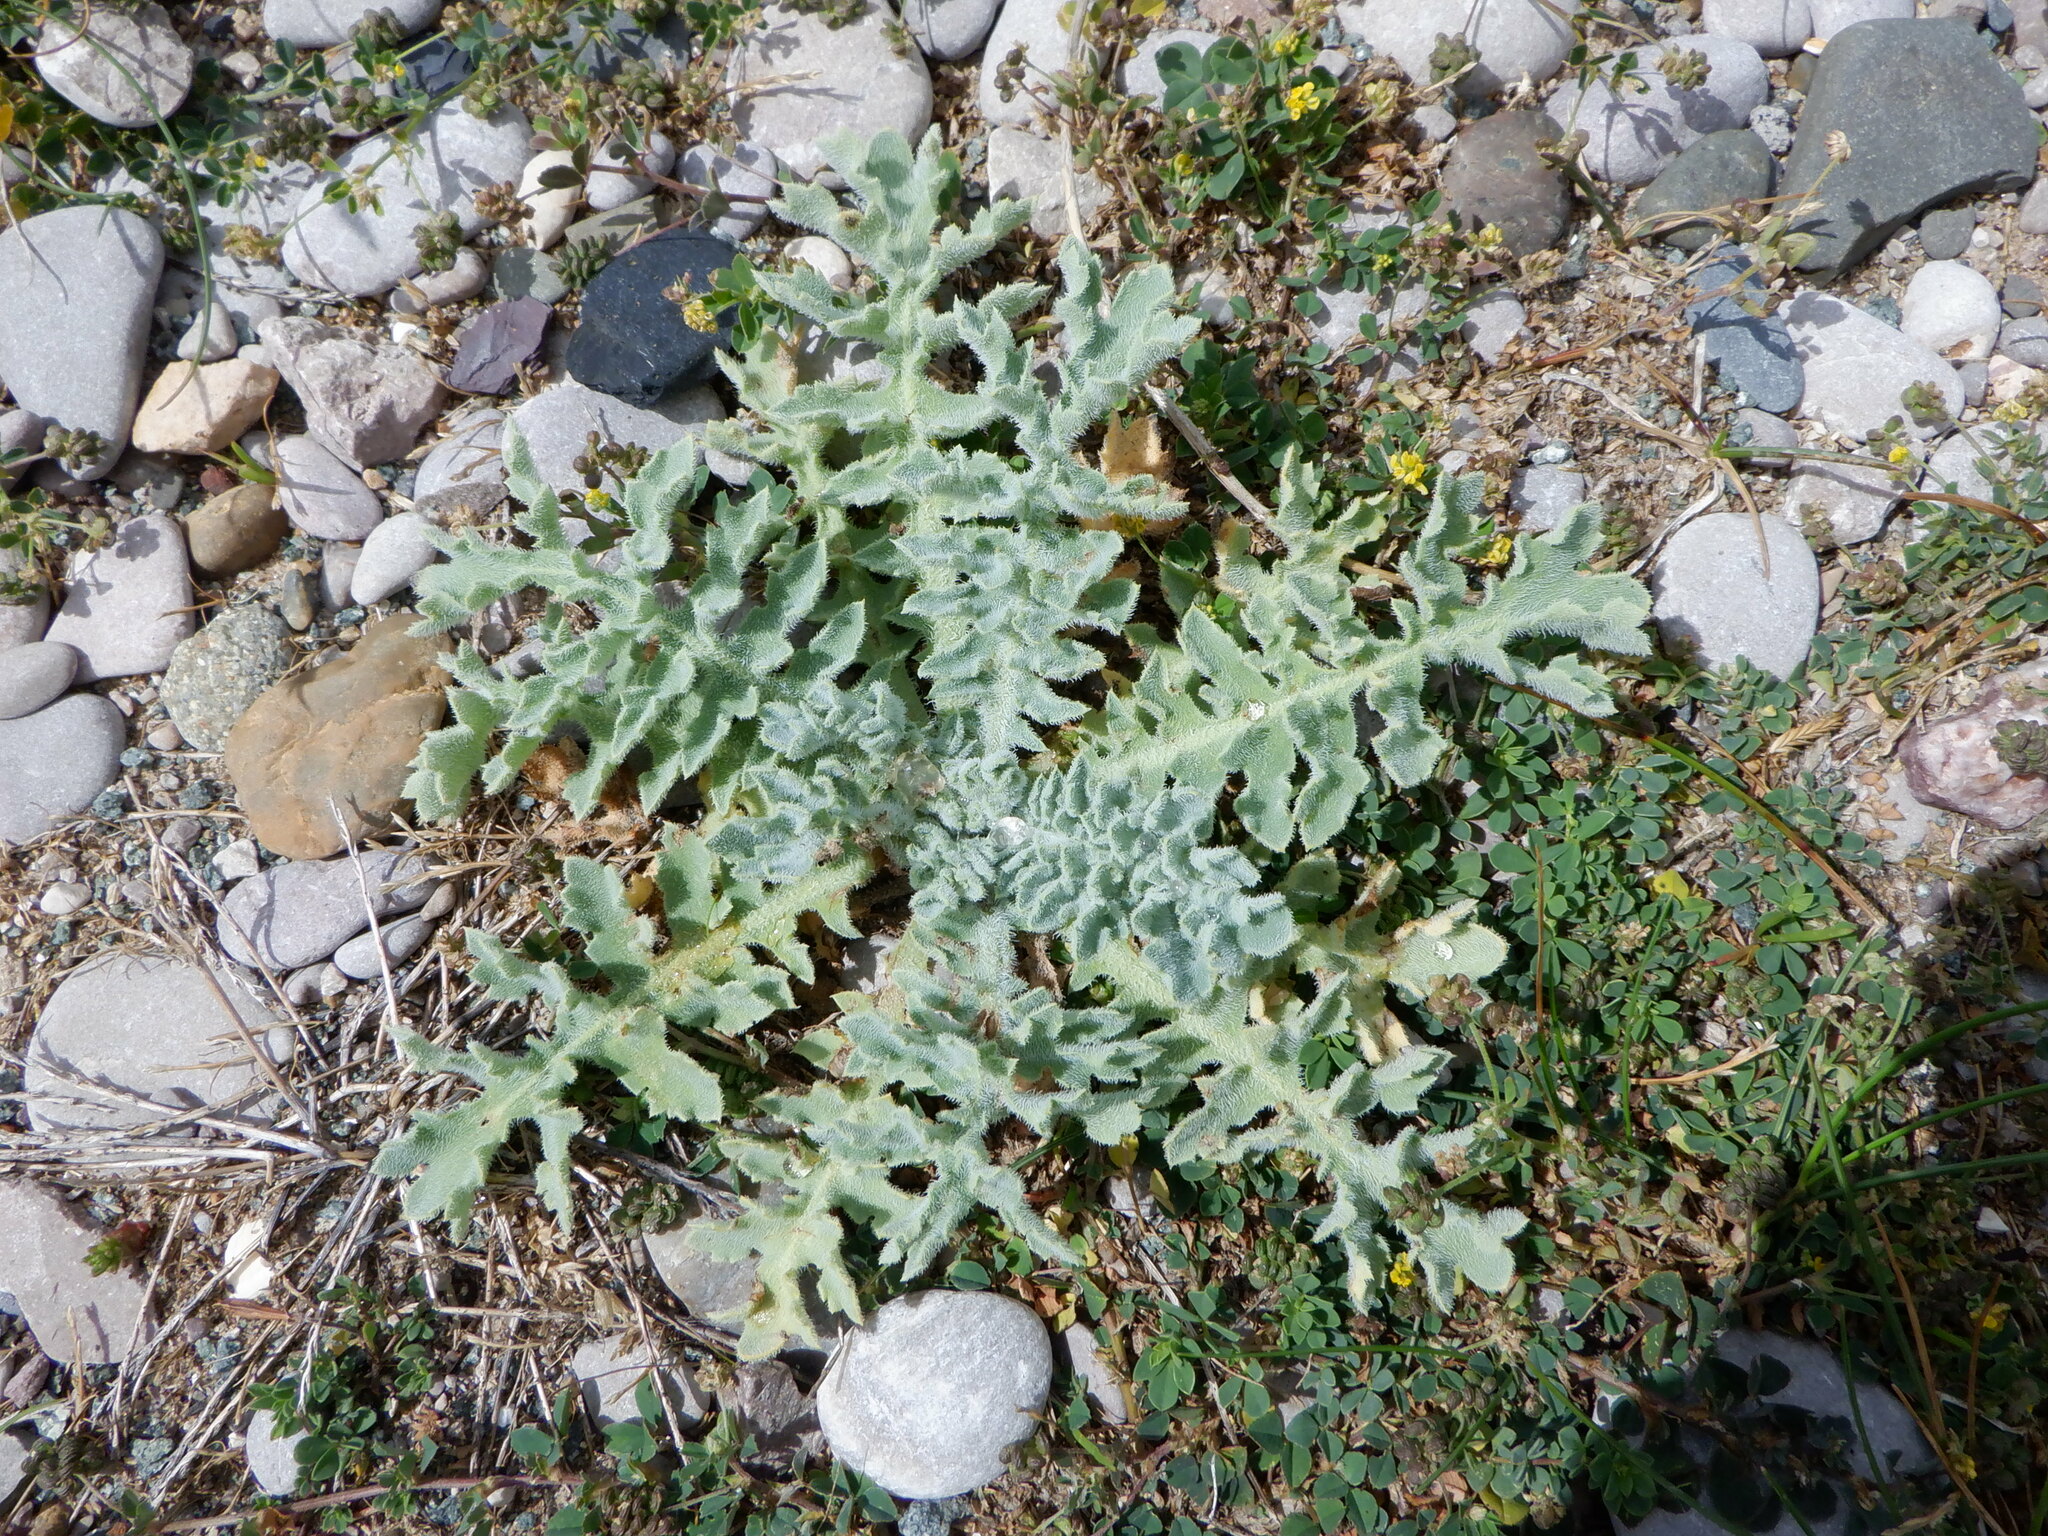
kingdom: Plantae
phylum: Tracheophyta
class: Magnoliopsida
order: Ranunculales
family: Papaveraceae
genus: Glaucium
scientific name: Glaucium flavum
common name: Yellow horned-poppy
